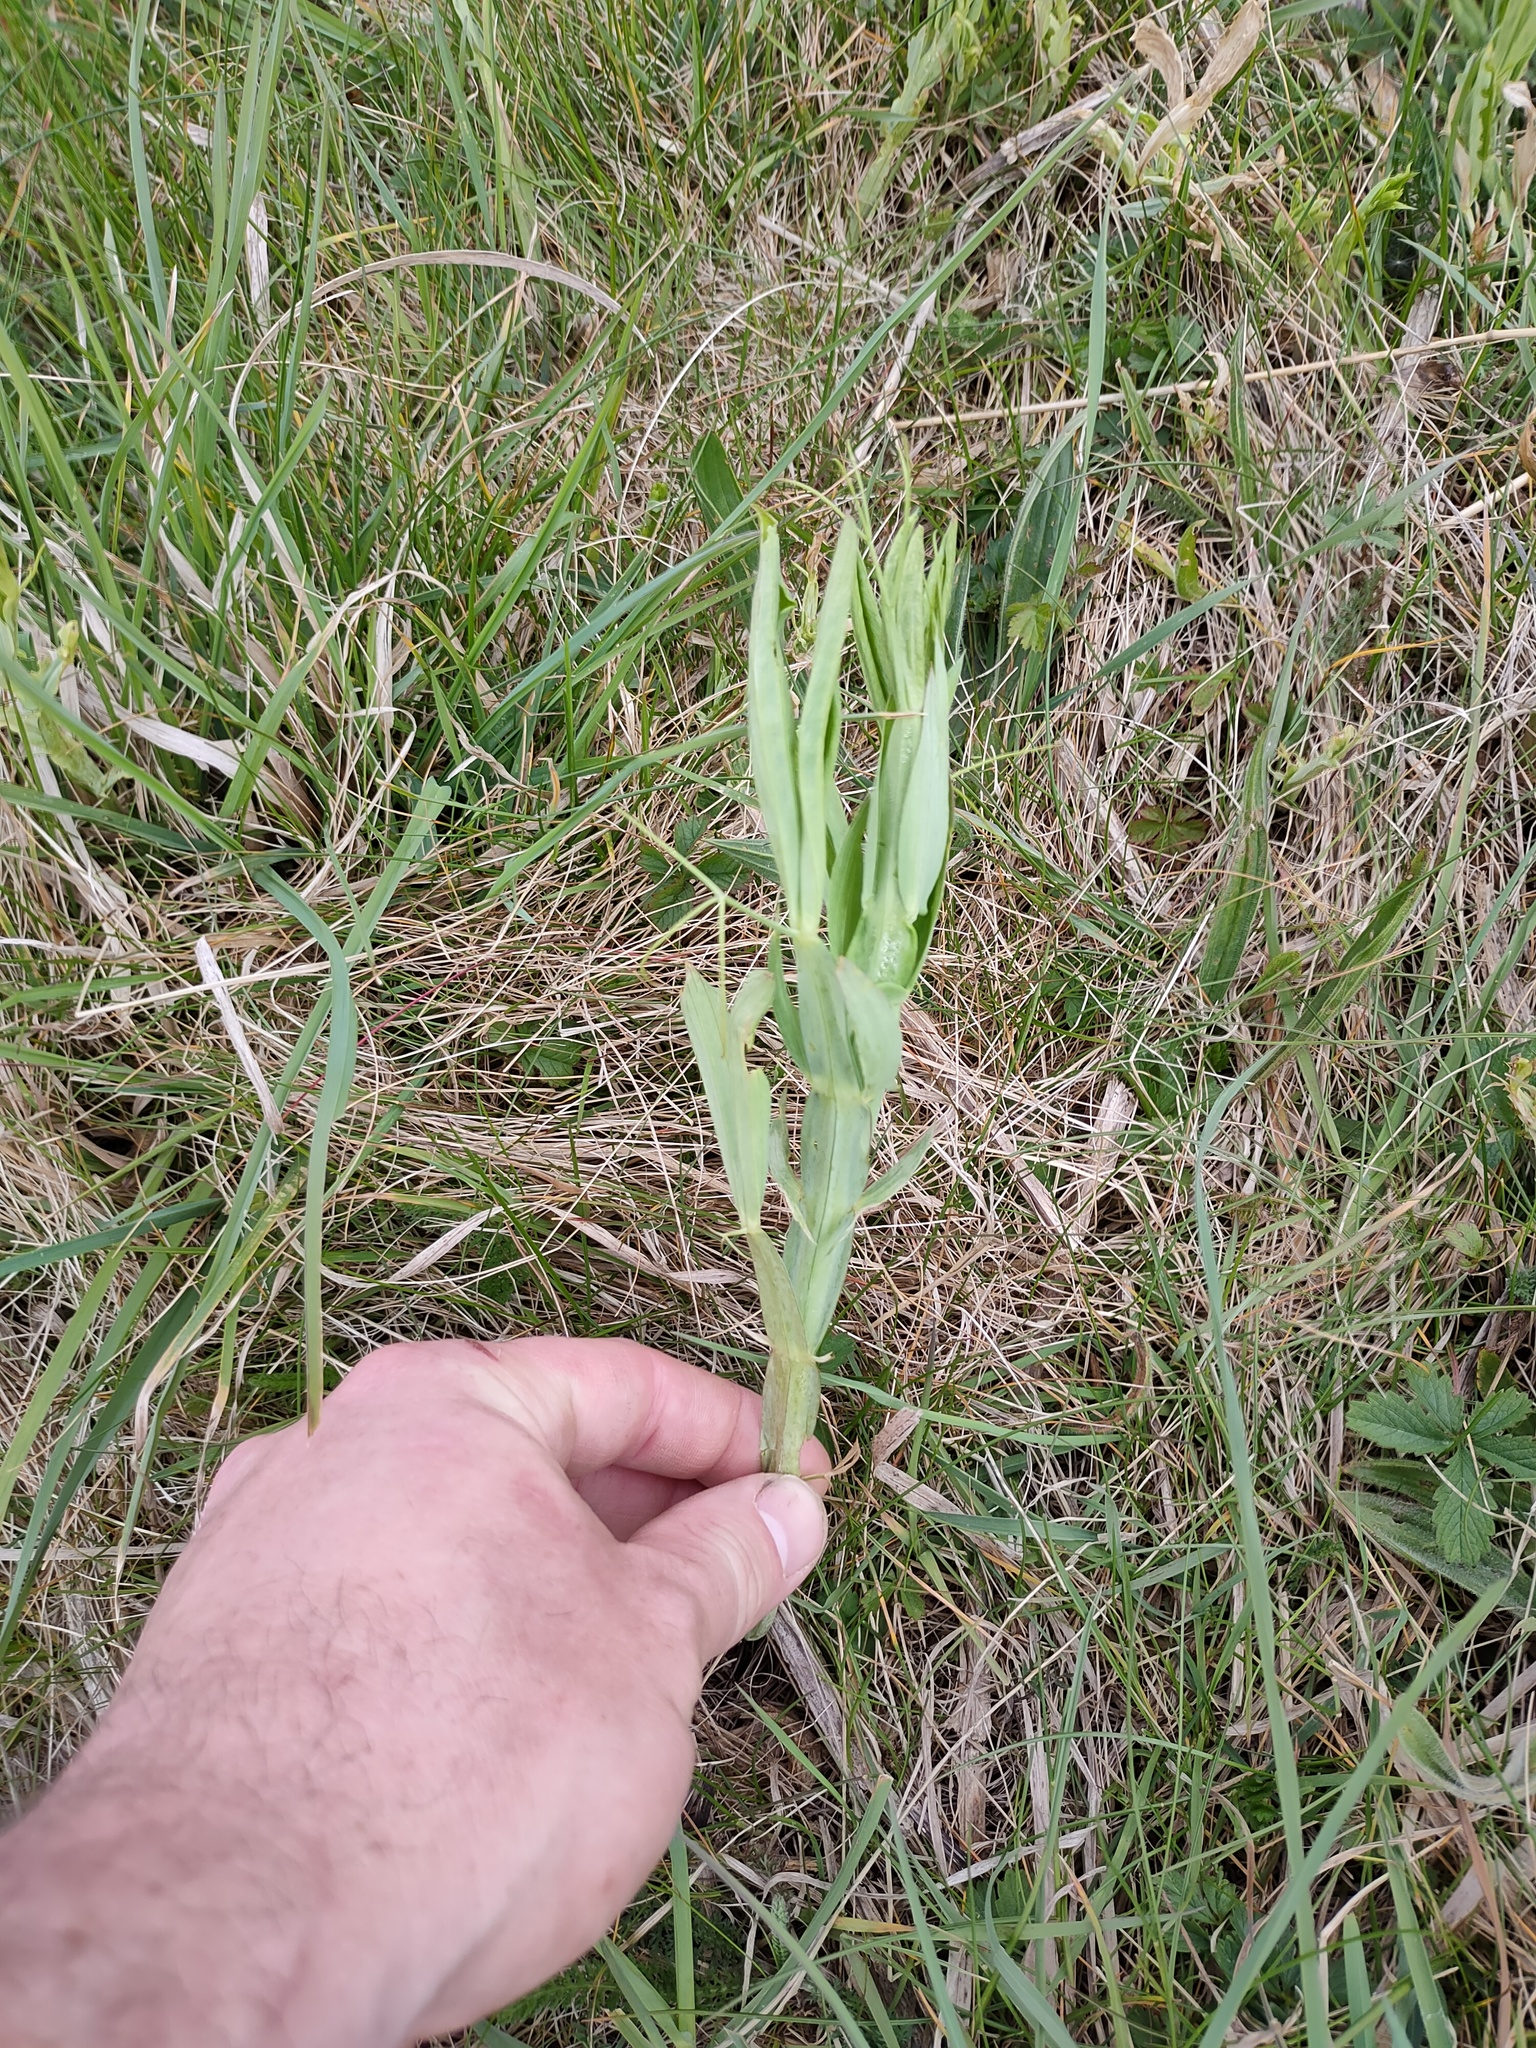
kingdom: Plantae
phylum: Tracheophyta
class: Magnoliopsida
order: Fabales
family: Fabaceae
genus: Lathyrus
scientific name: Lathyrus latifolius
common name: Perennial pea
